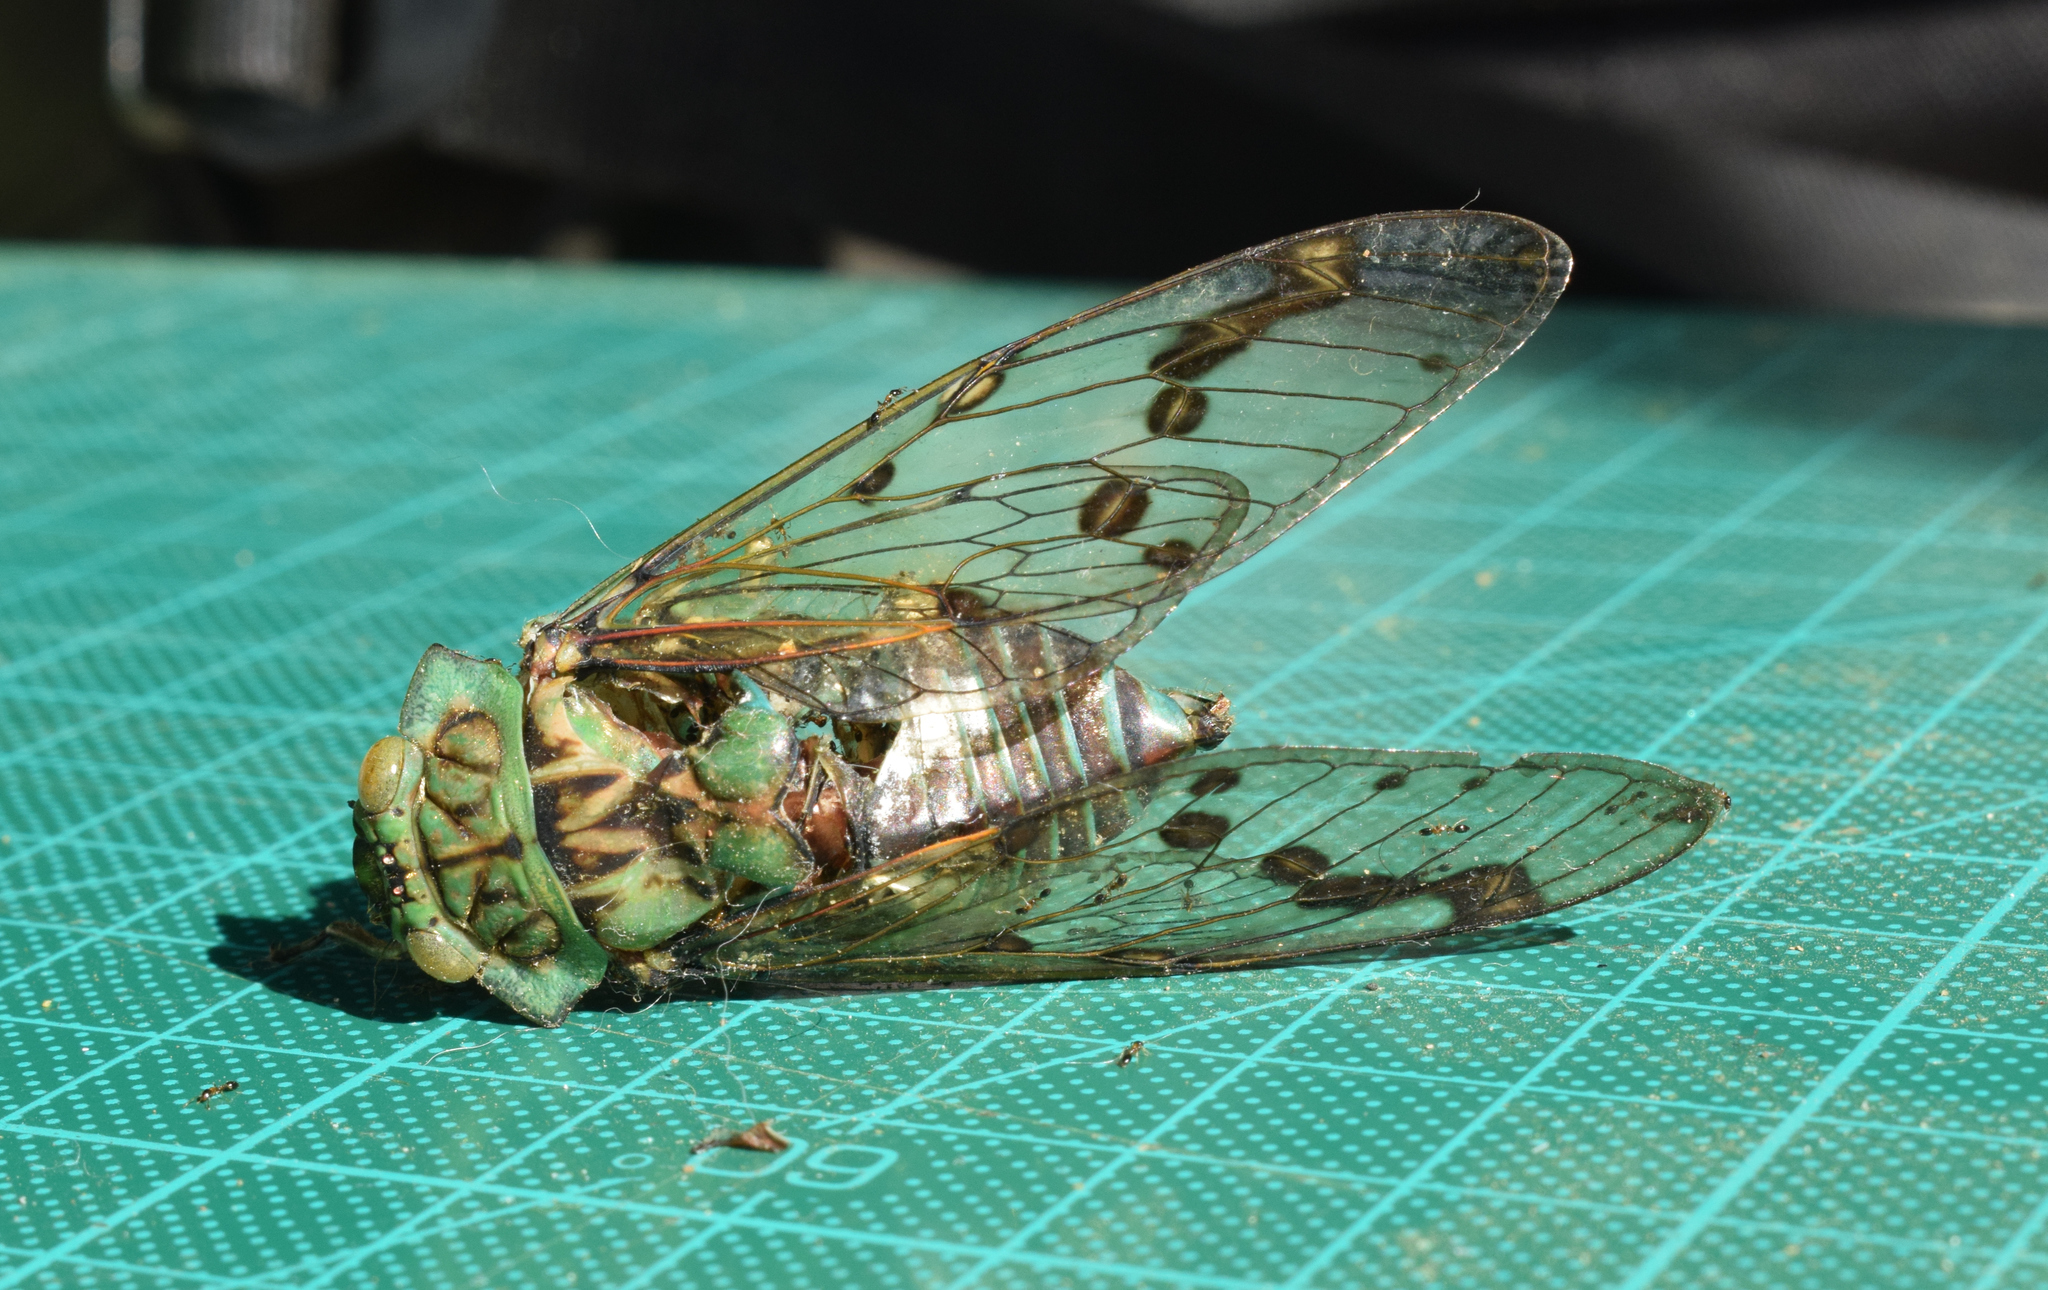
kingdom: Animalia
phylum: Arthropoda
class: Insecta
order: Hemiptera
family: Cicadidae
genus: Zammara
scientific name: Zammara tympanum
